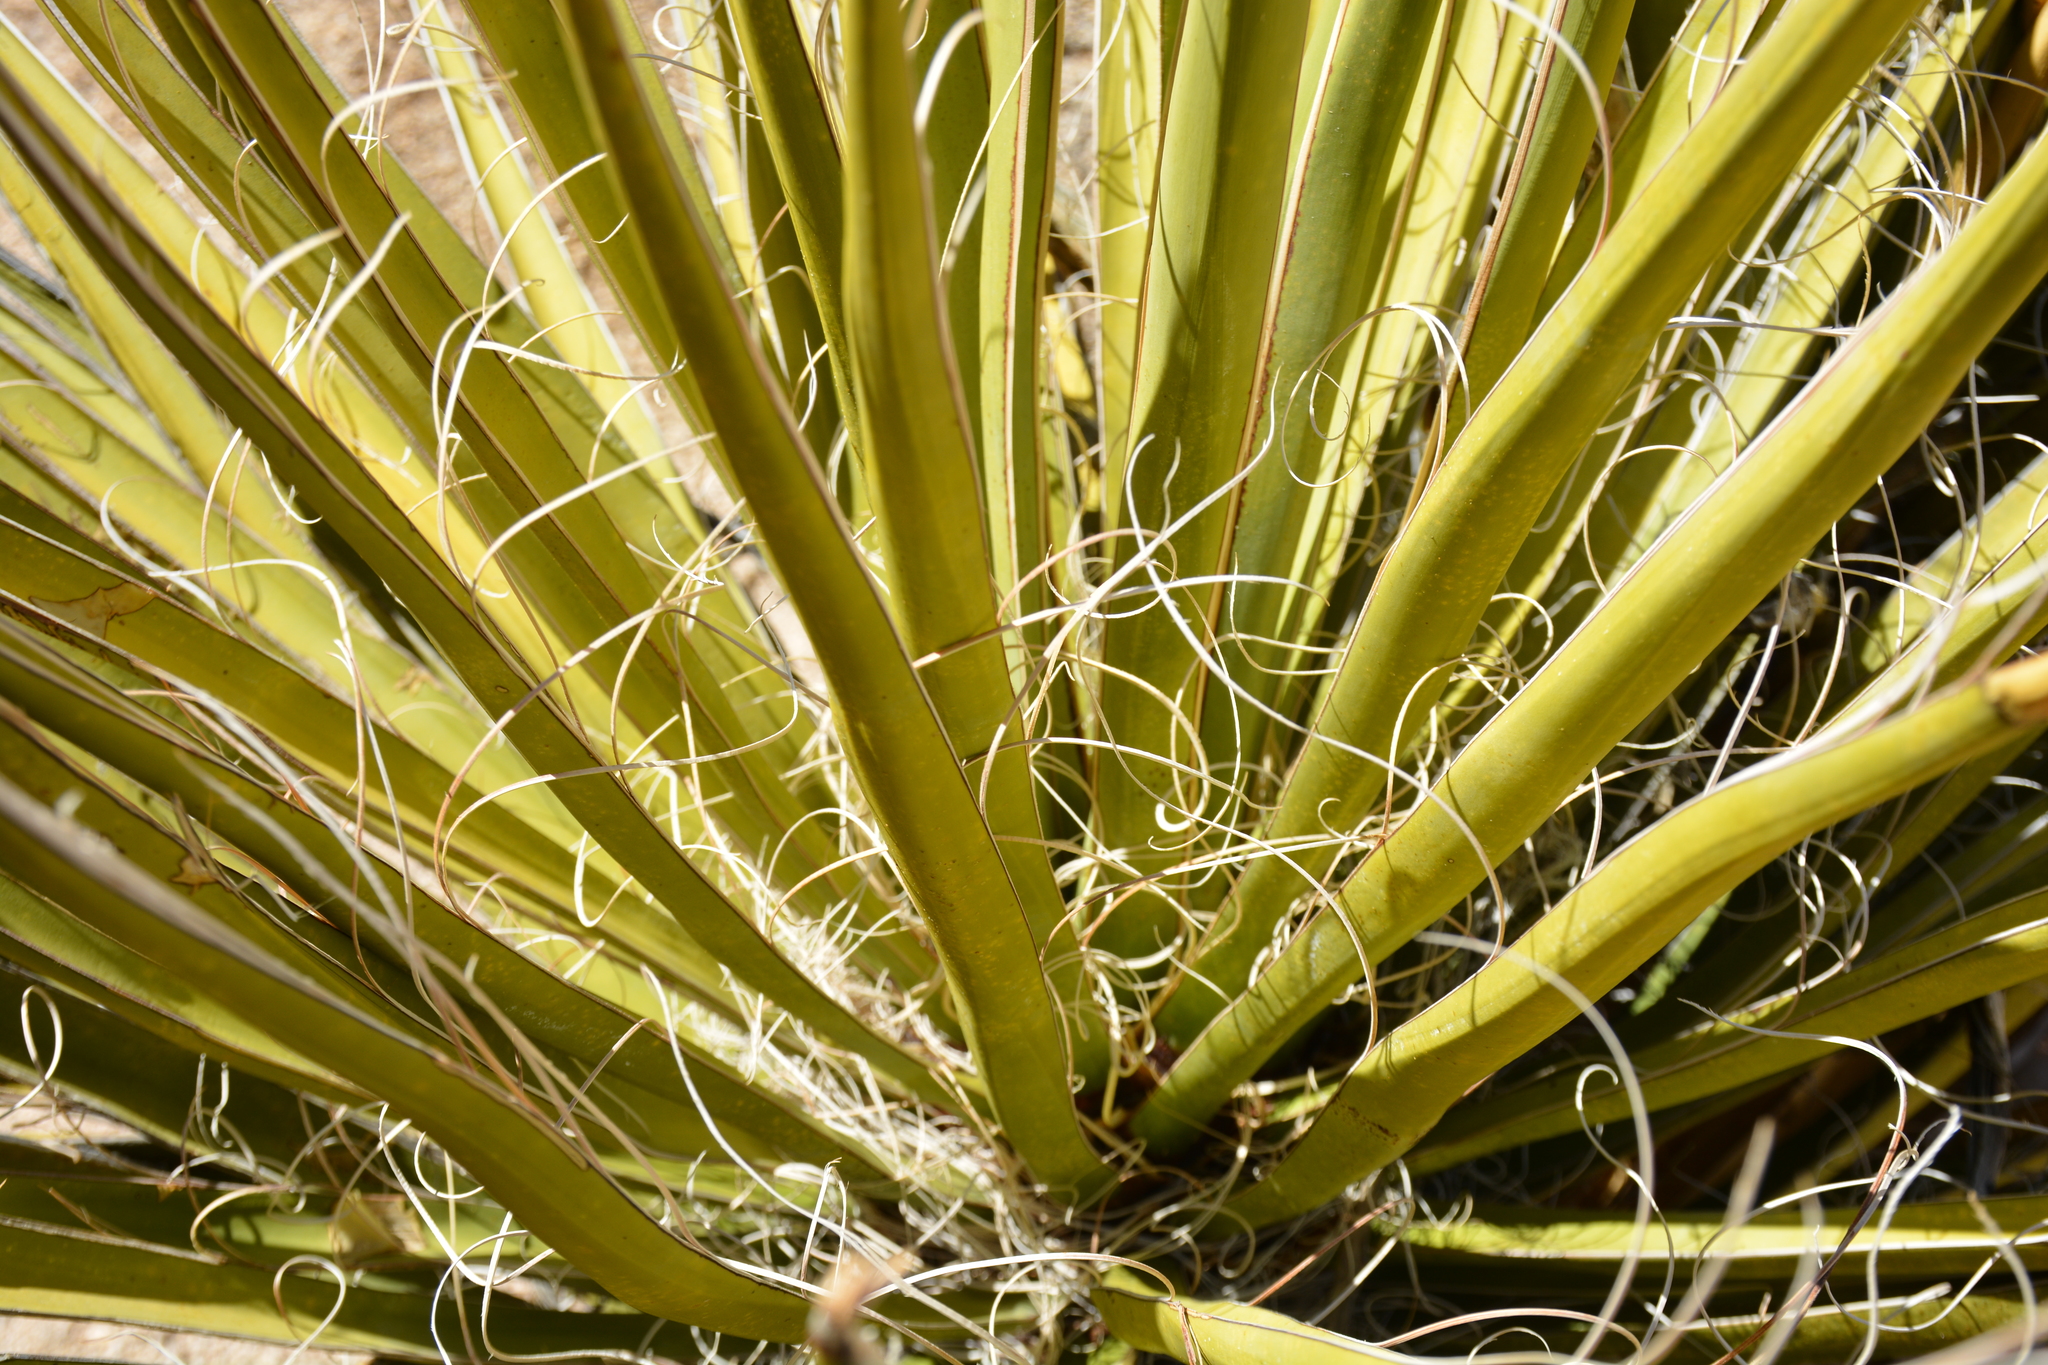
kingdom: Plantae
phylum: Tracheophyta
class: Liliopsida
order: Asparagales
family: Asparagaceae
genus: Yucca
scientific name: Yucca schidigera
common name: Mojave yucca
